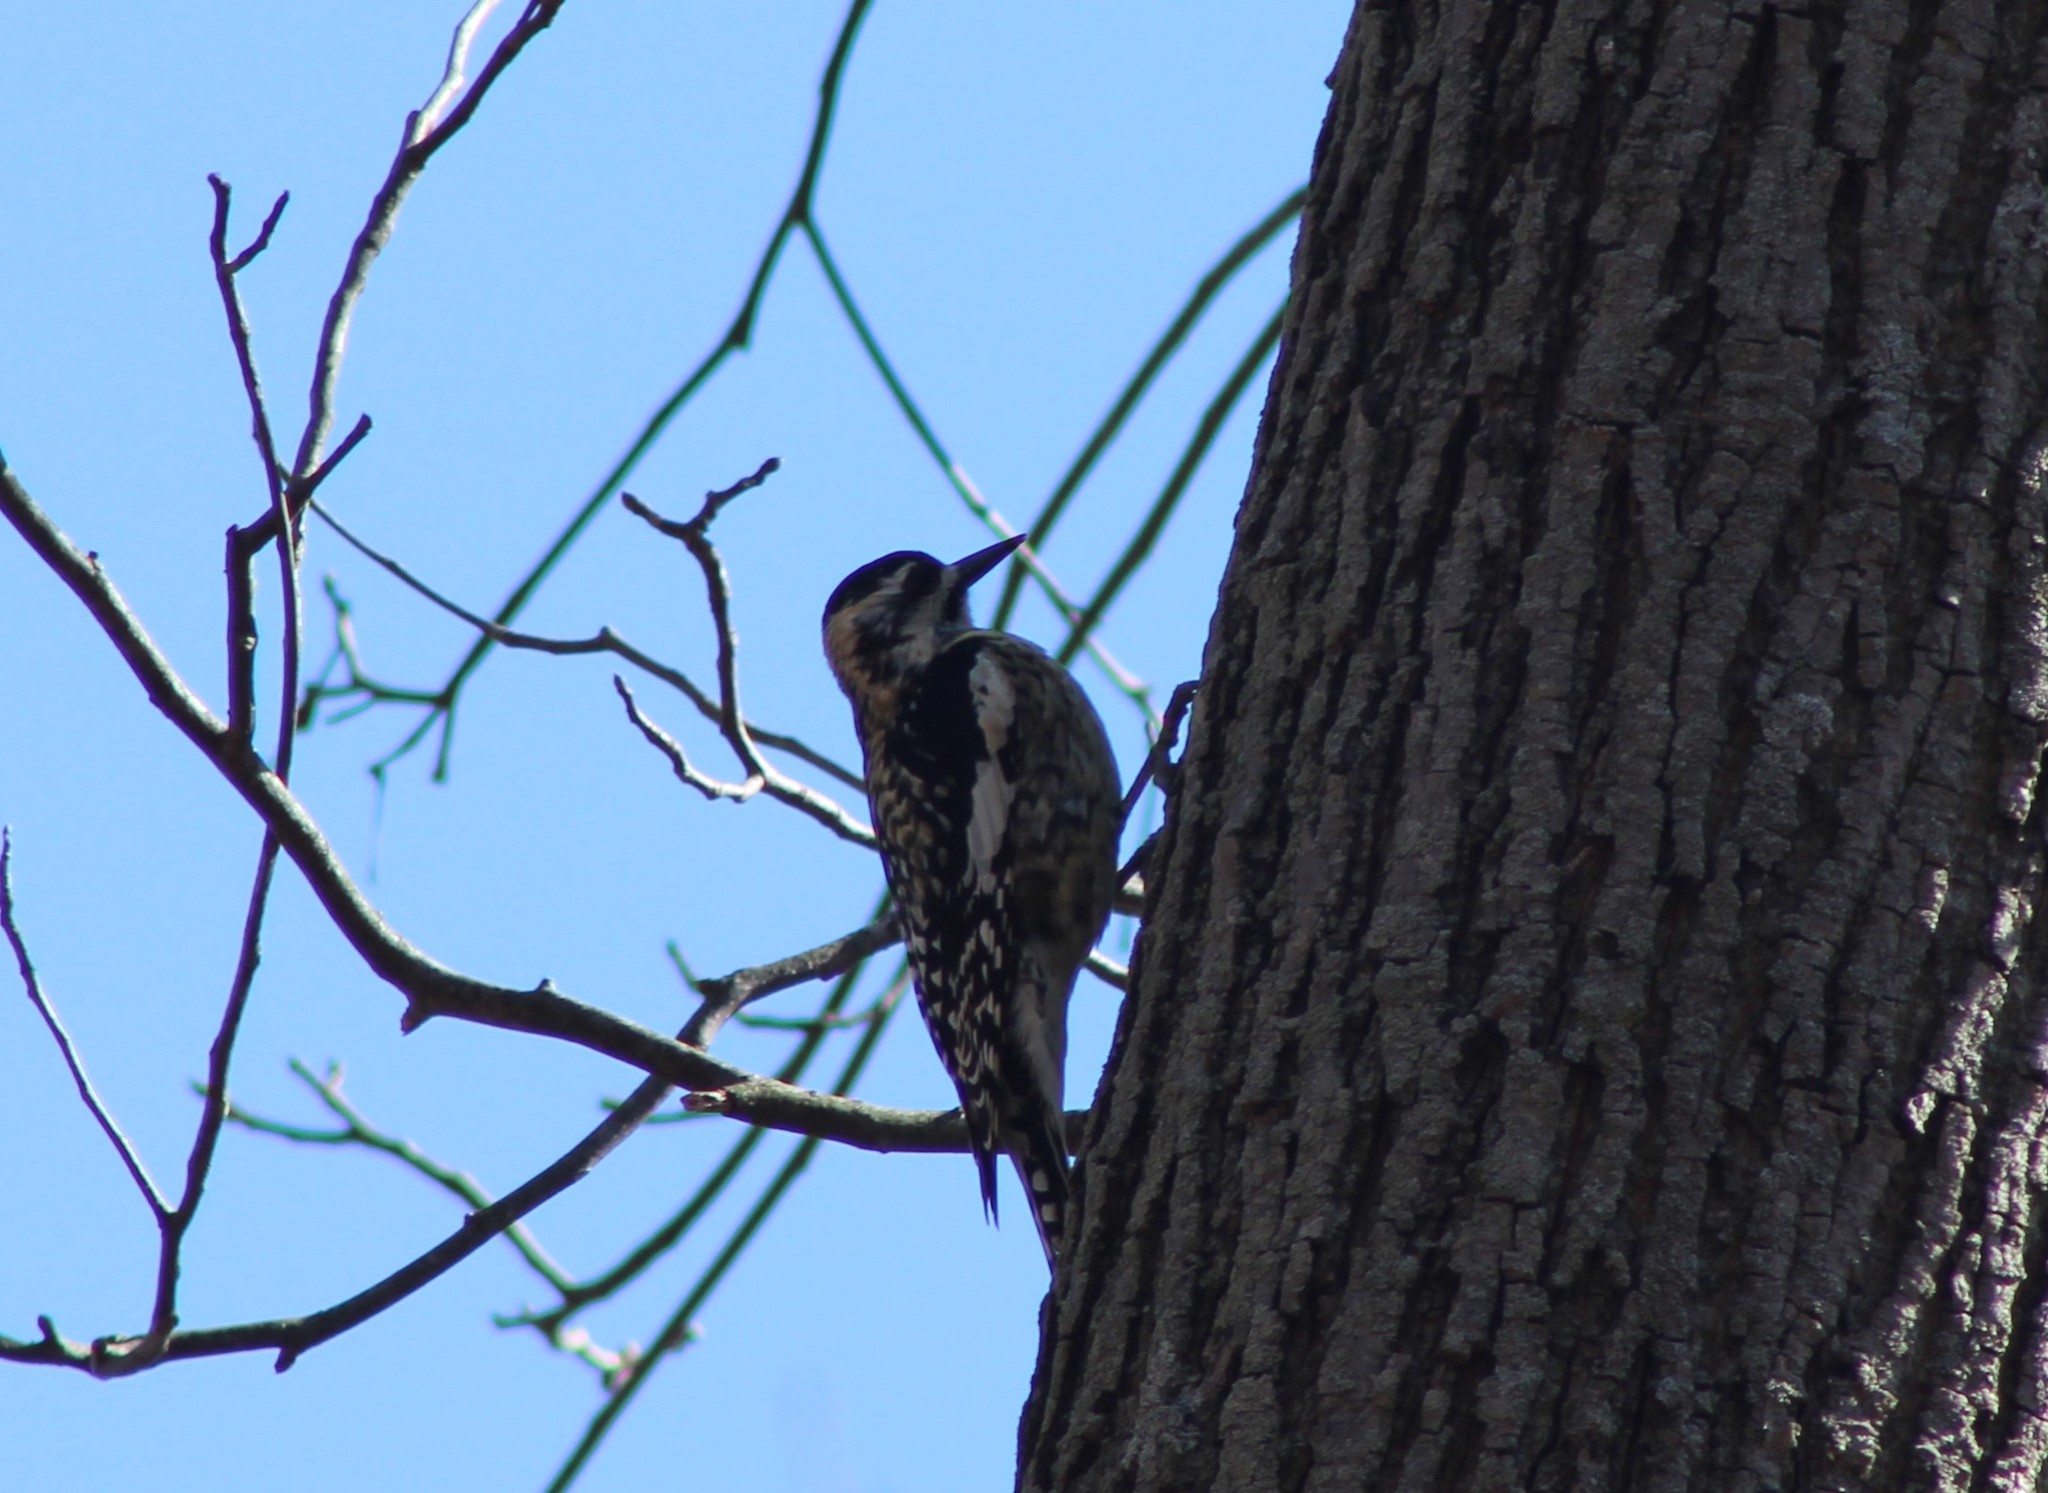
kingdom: Animalia
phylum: Chordata
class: Aves
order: Piciformes
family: Picidae
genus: Sphyrapicus
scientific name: Sphyrapicus varius
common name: Yellow-bellied sapsucker
